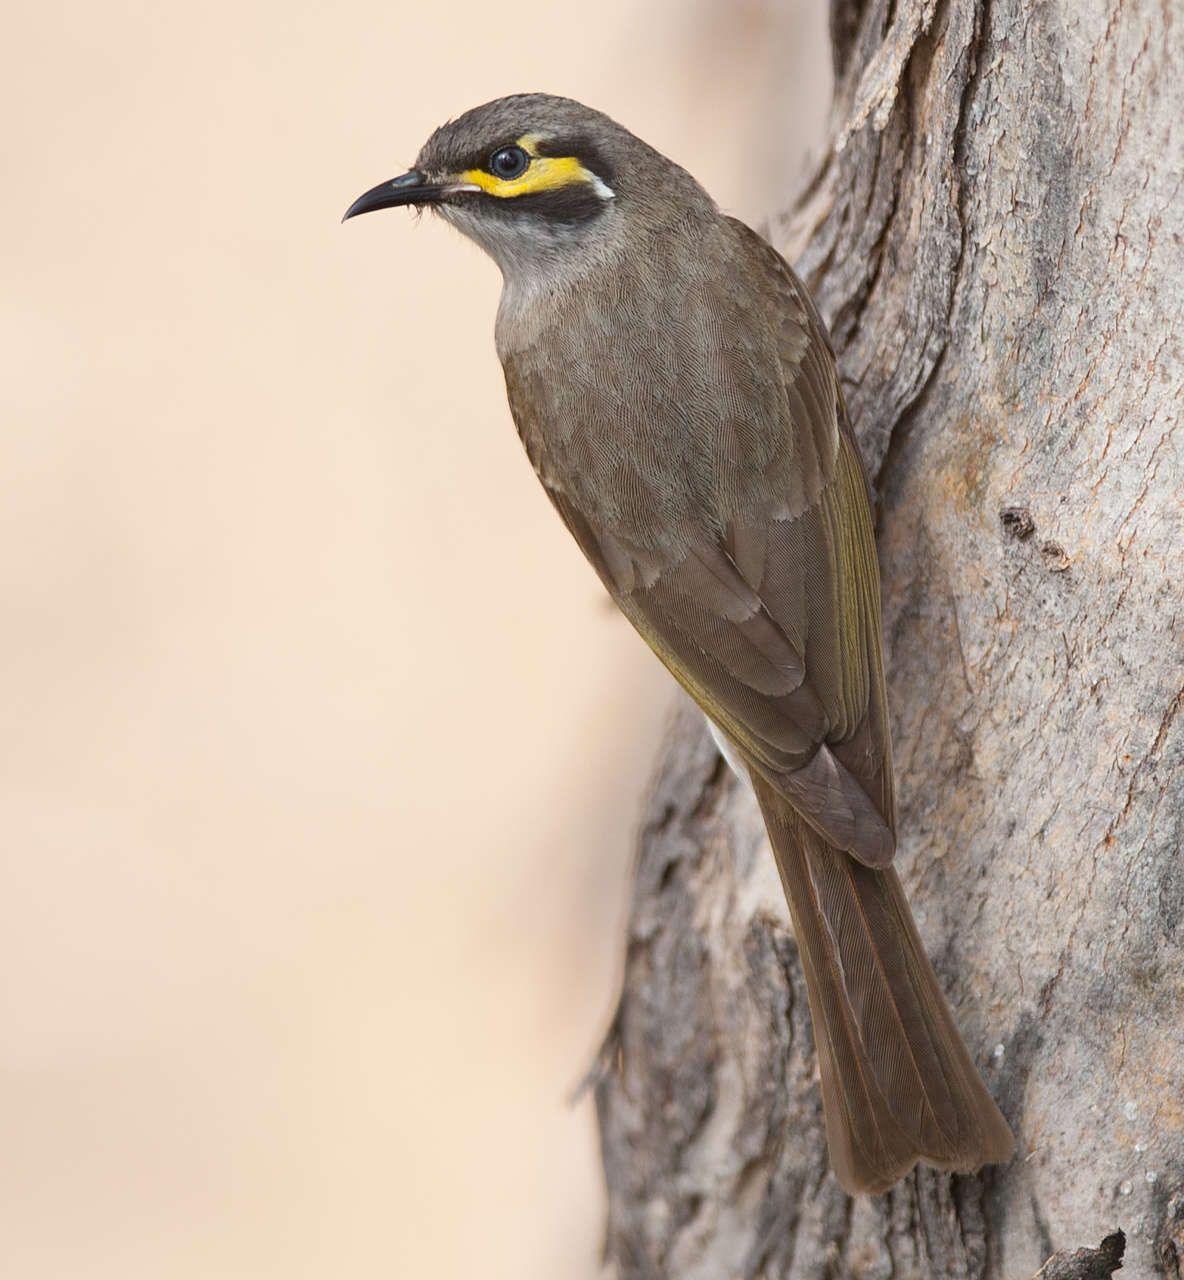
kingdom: Animalia
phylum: Chordata
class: Aves
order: Passeriformes
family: Meliphagidae
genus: Caligavis
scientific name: Caligavis chrysops
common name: Yellow-faced honeyeater
